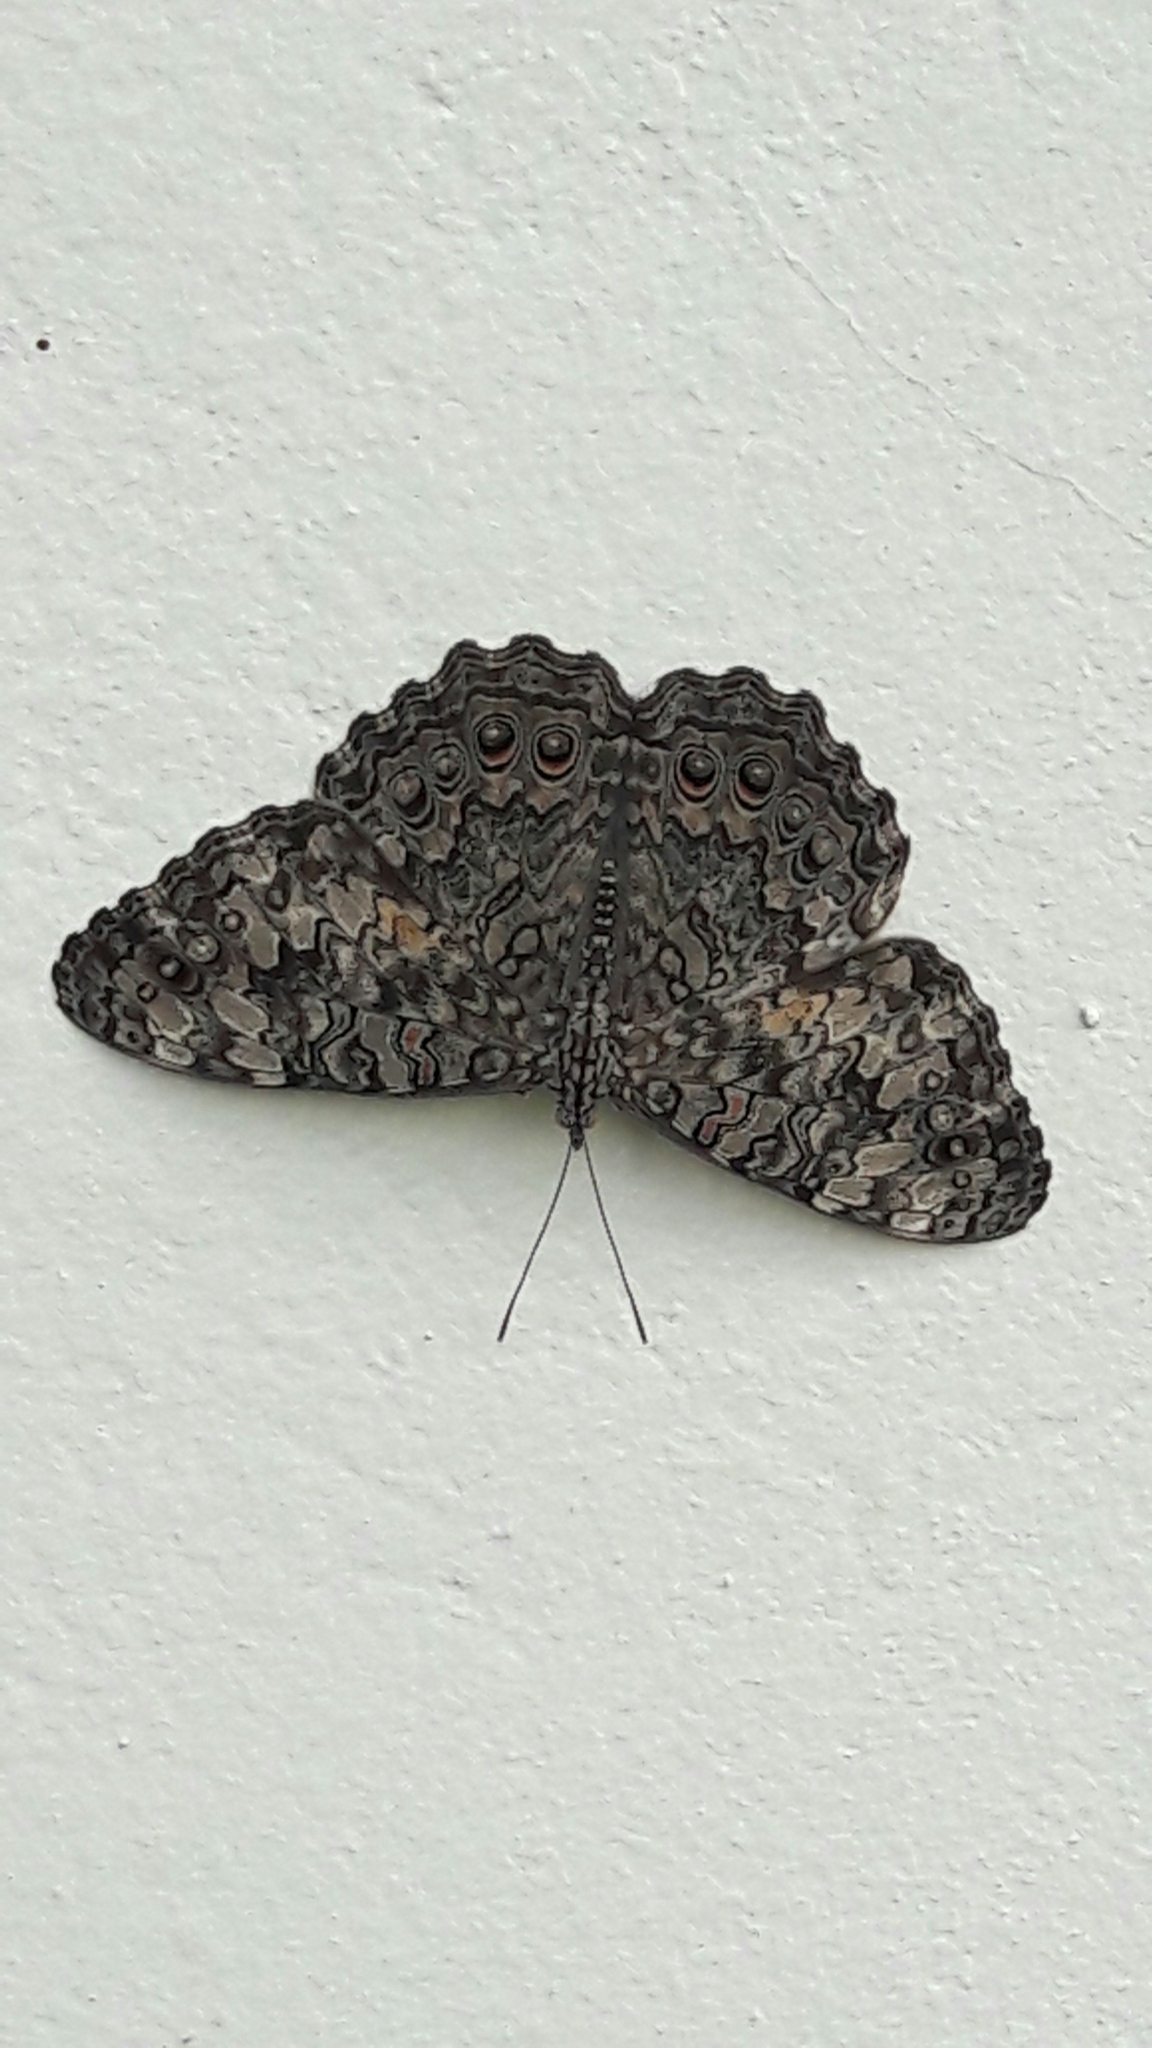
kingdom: Animalia
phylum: Arthropoda
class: Insecta
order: Lepidoptera
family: Nymphalidae
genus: Hamadryas
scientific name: Hamadryas februa
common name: Gray cracker
